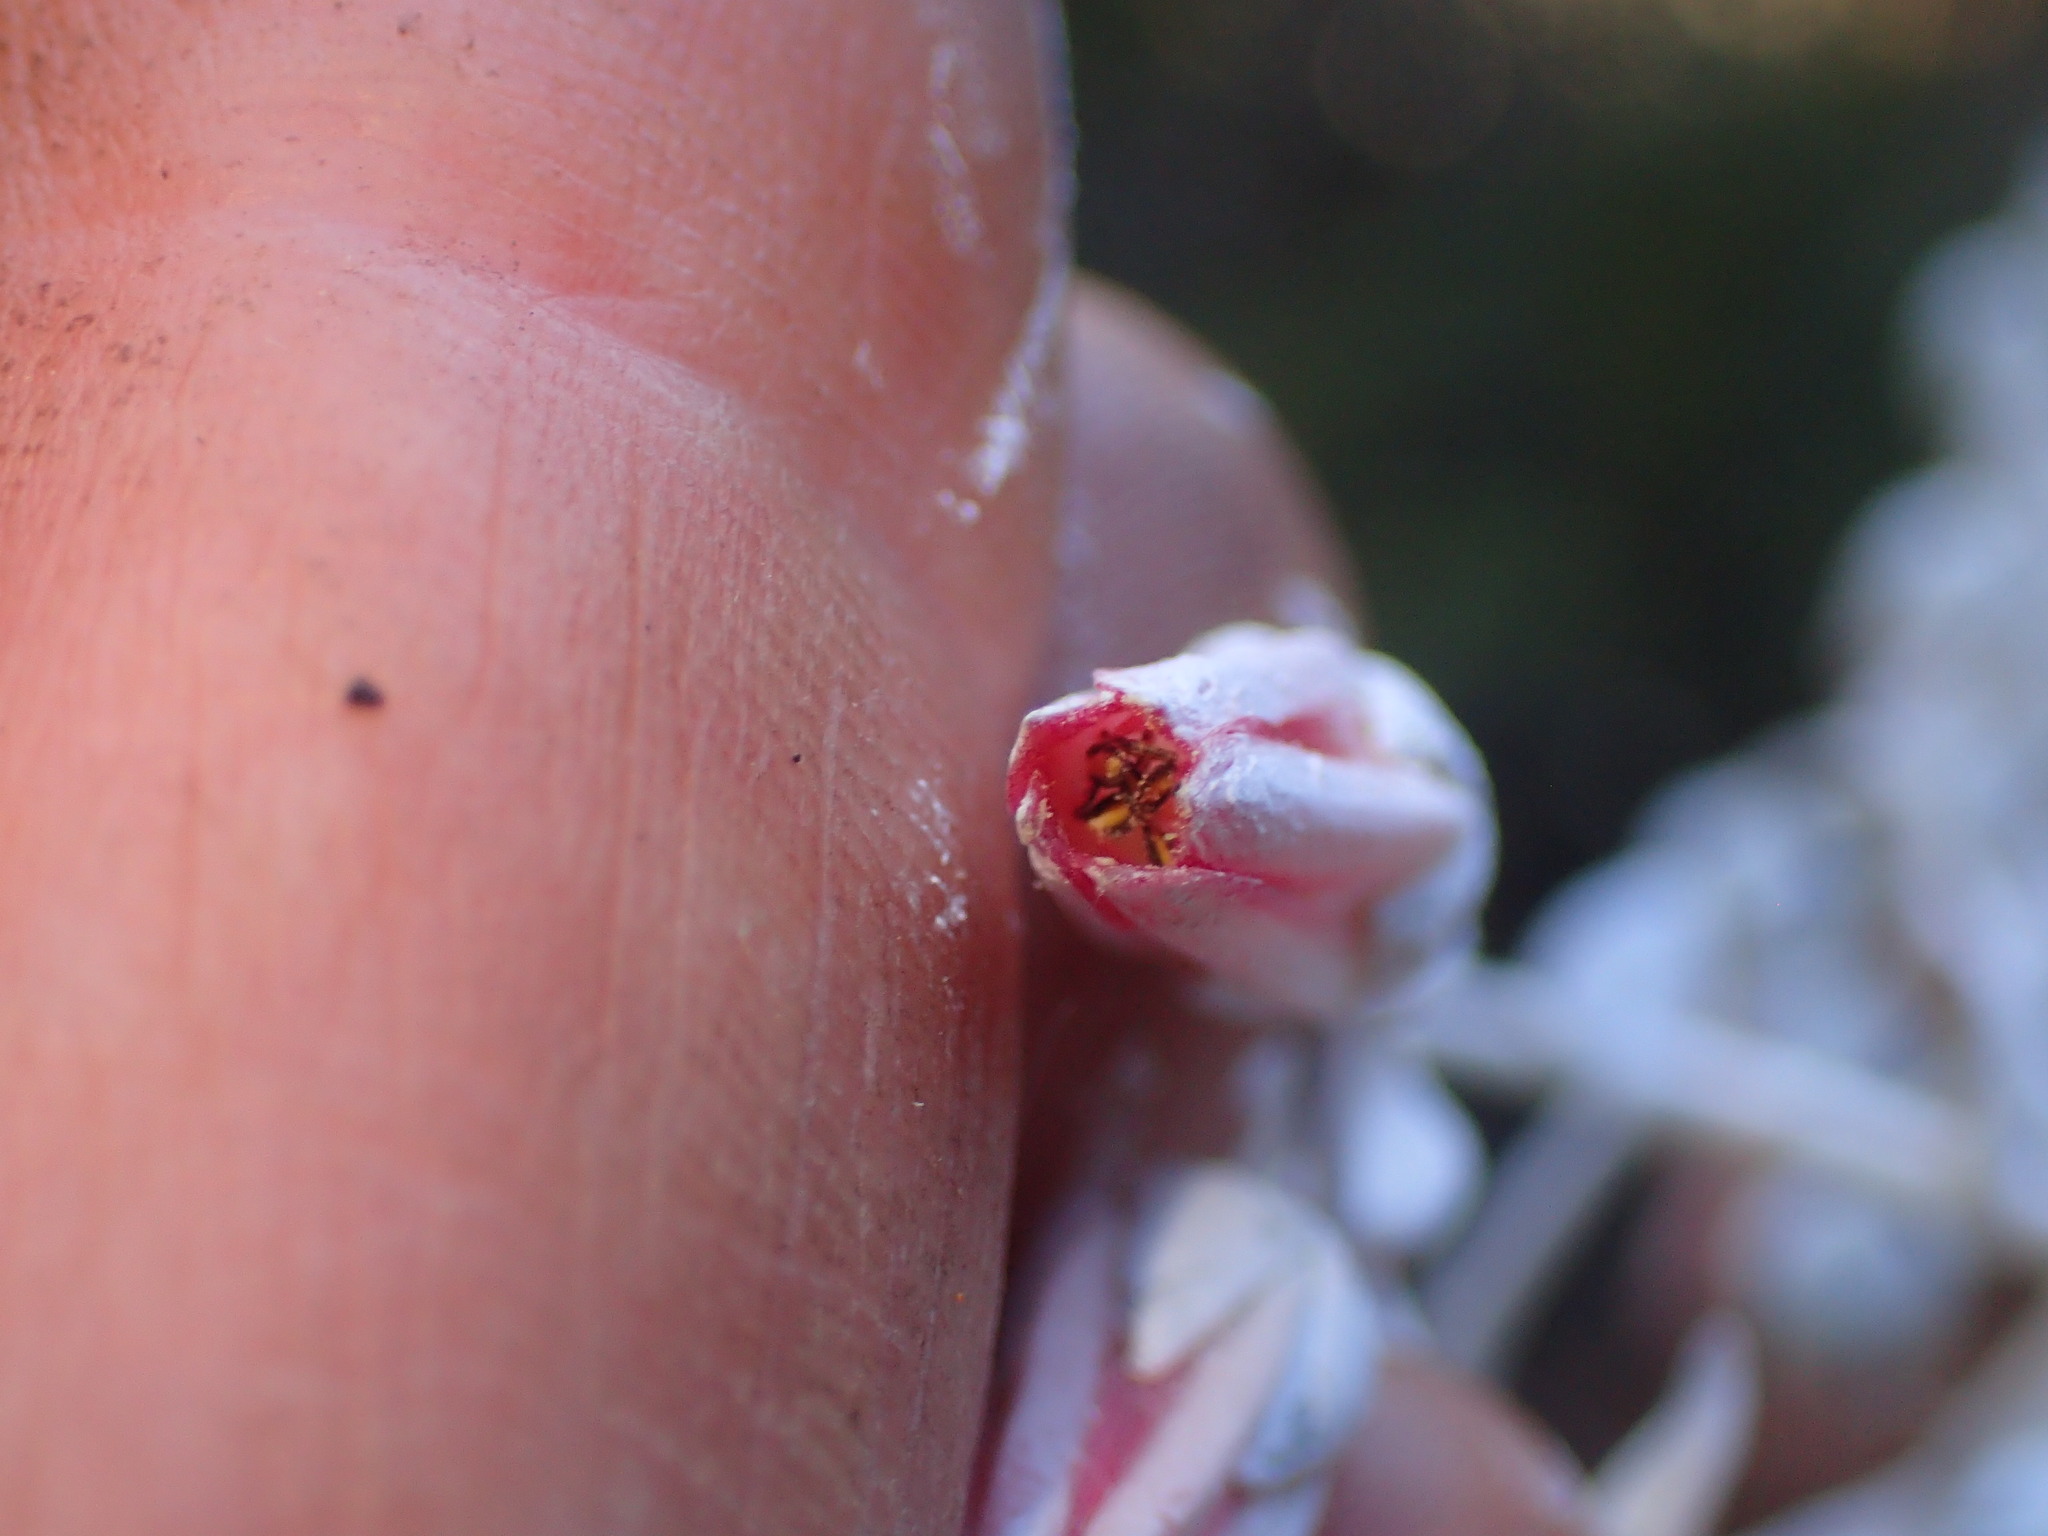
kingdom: Plantae
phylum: Tracheophyta
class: Magnoliopsida
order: Saxifragales
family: Crassulaceae
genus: Dudleya
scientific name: Dudleya pulverulenta
